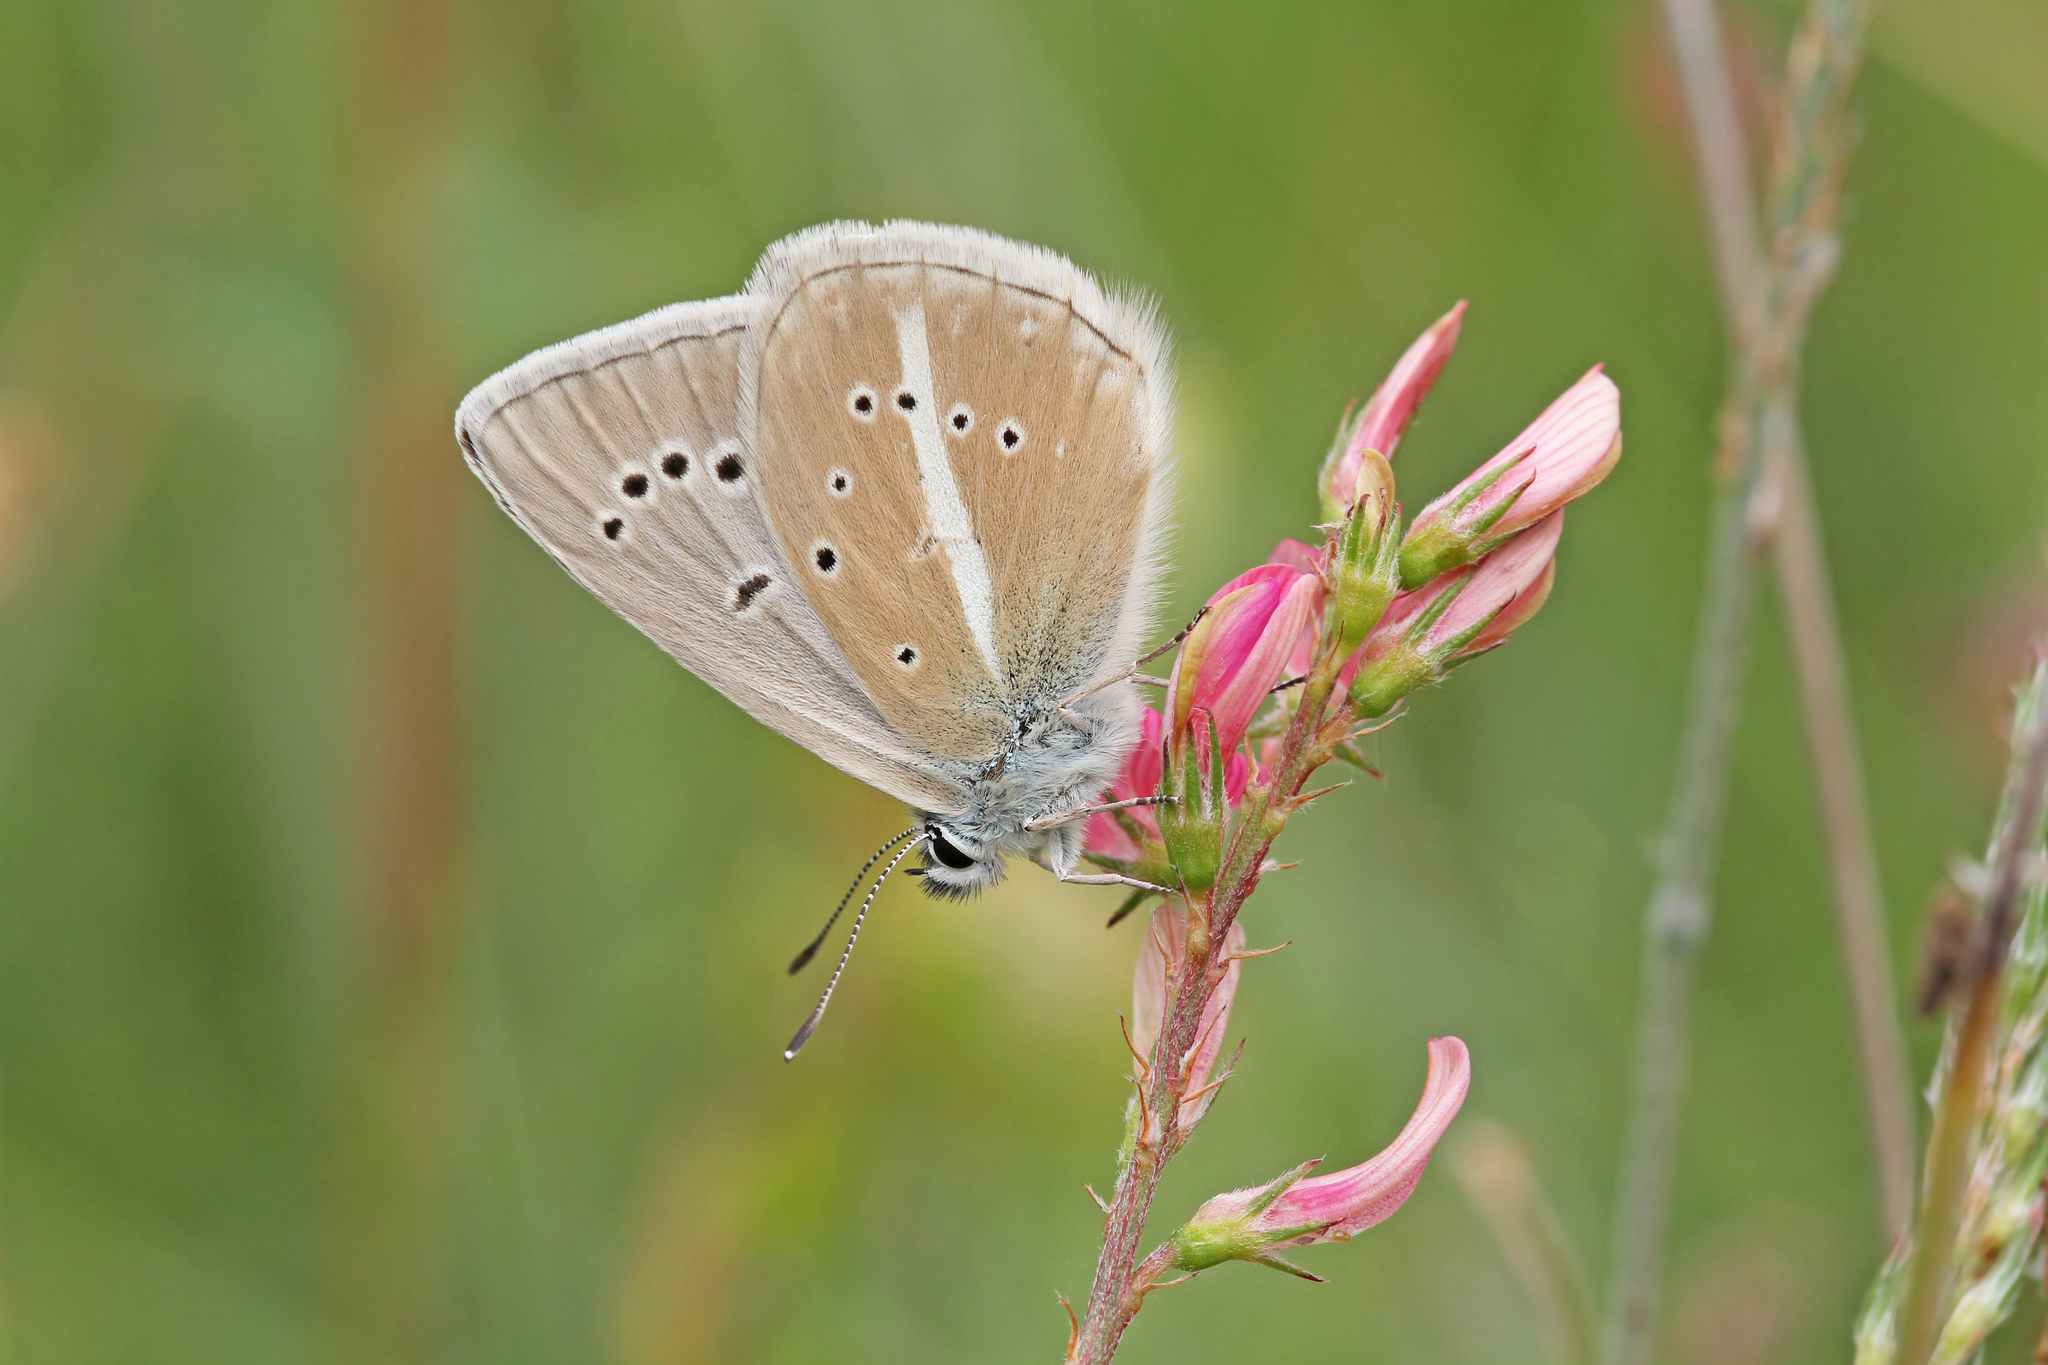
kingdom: Animalia
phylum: Arthropoda
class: Insecta
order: Lepidoptera
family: Lycaenidae
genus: Agrodiaetus
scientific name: Agrodiaetus damon
